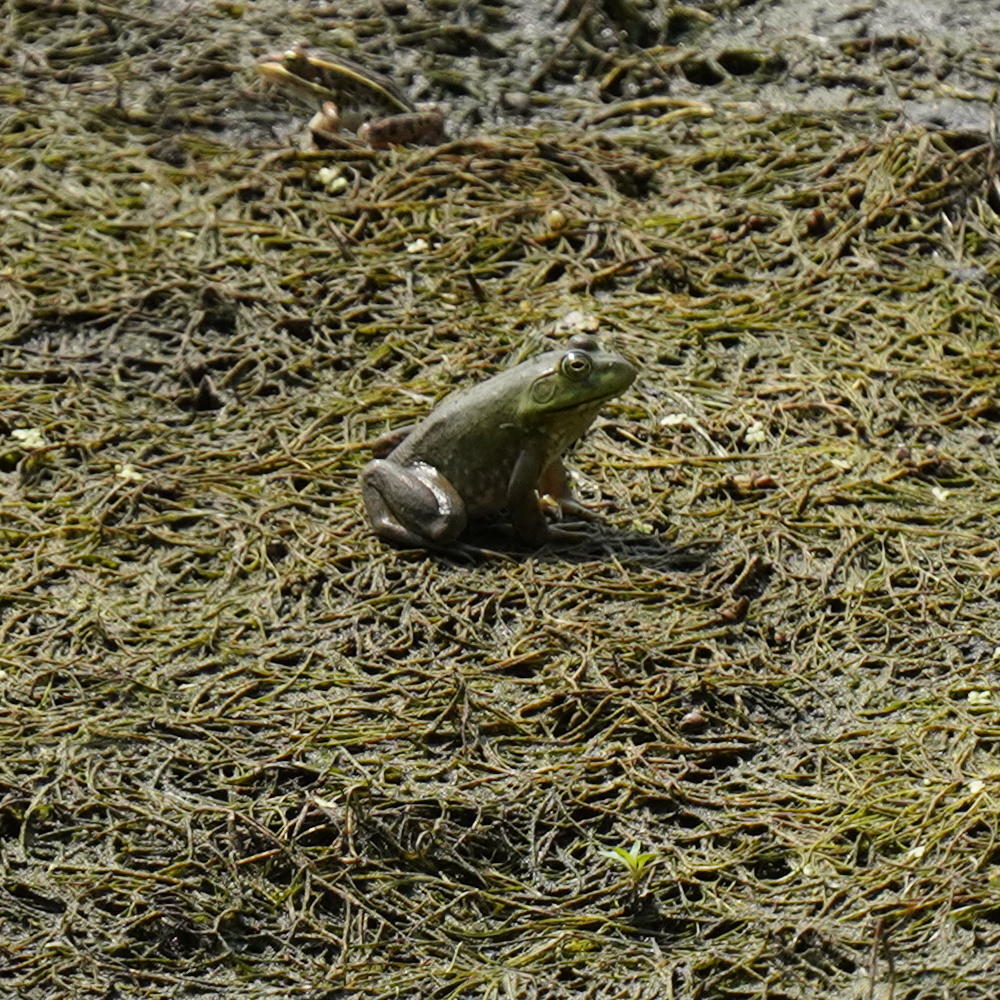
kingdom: Animalia
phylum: Chordata
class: Amphibia
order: Anura
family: Ranidae
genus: Lithobates
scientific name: Lithobates catesbeianus
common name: American bullfrog
